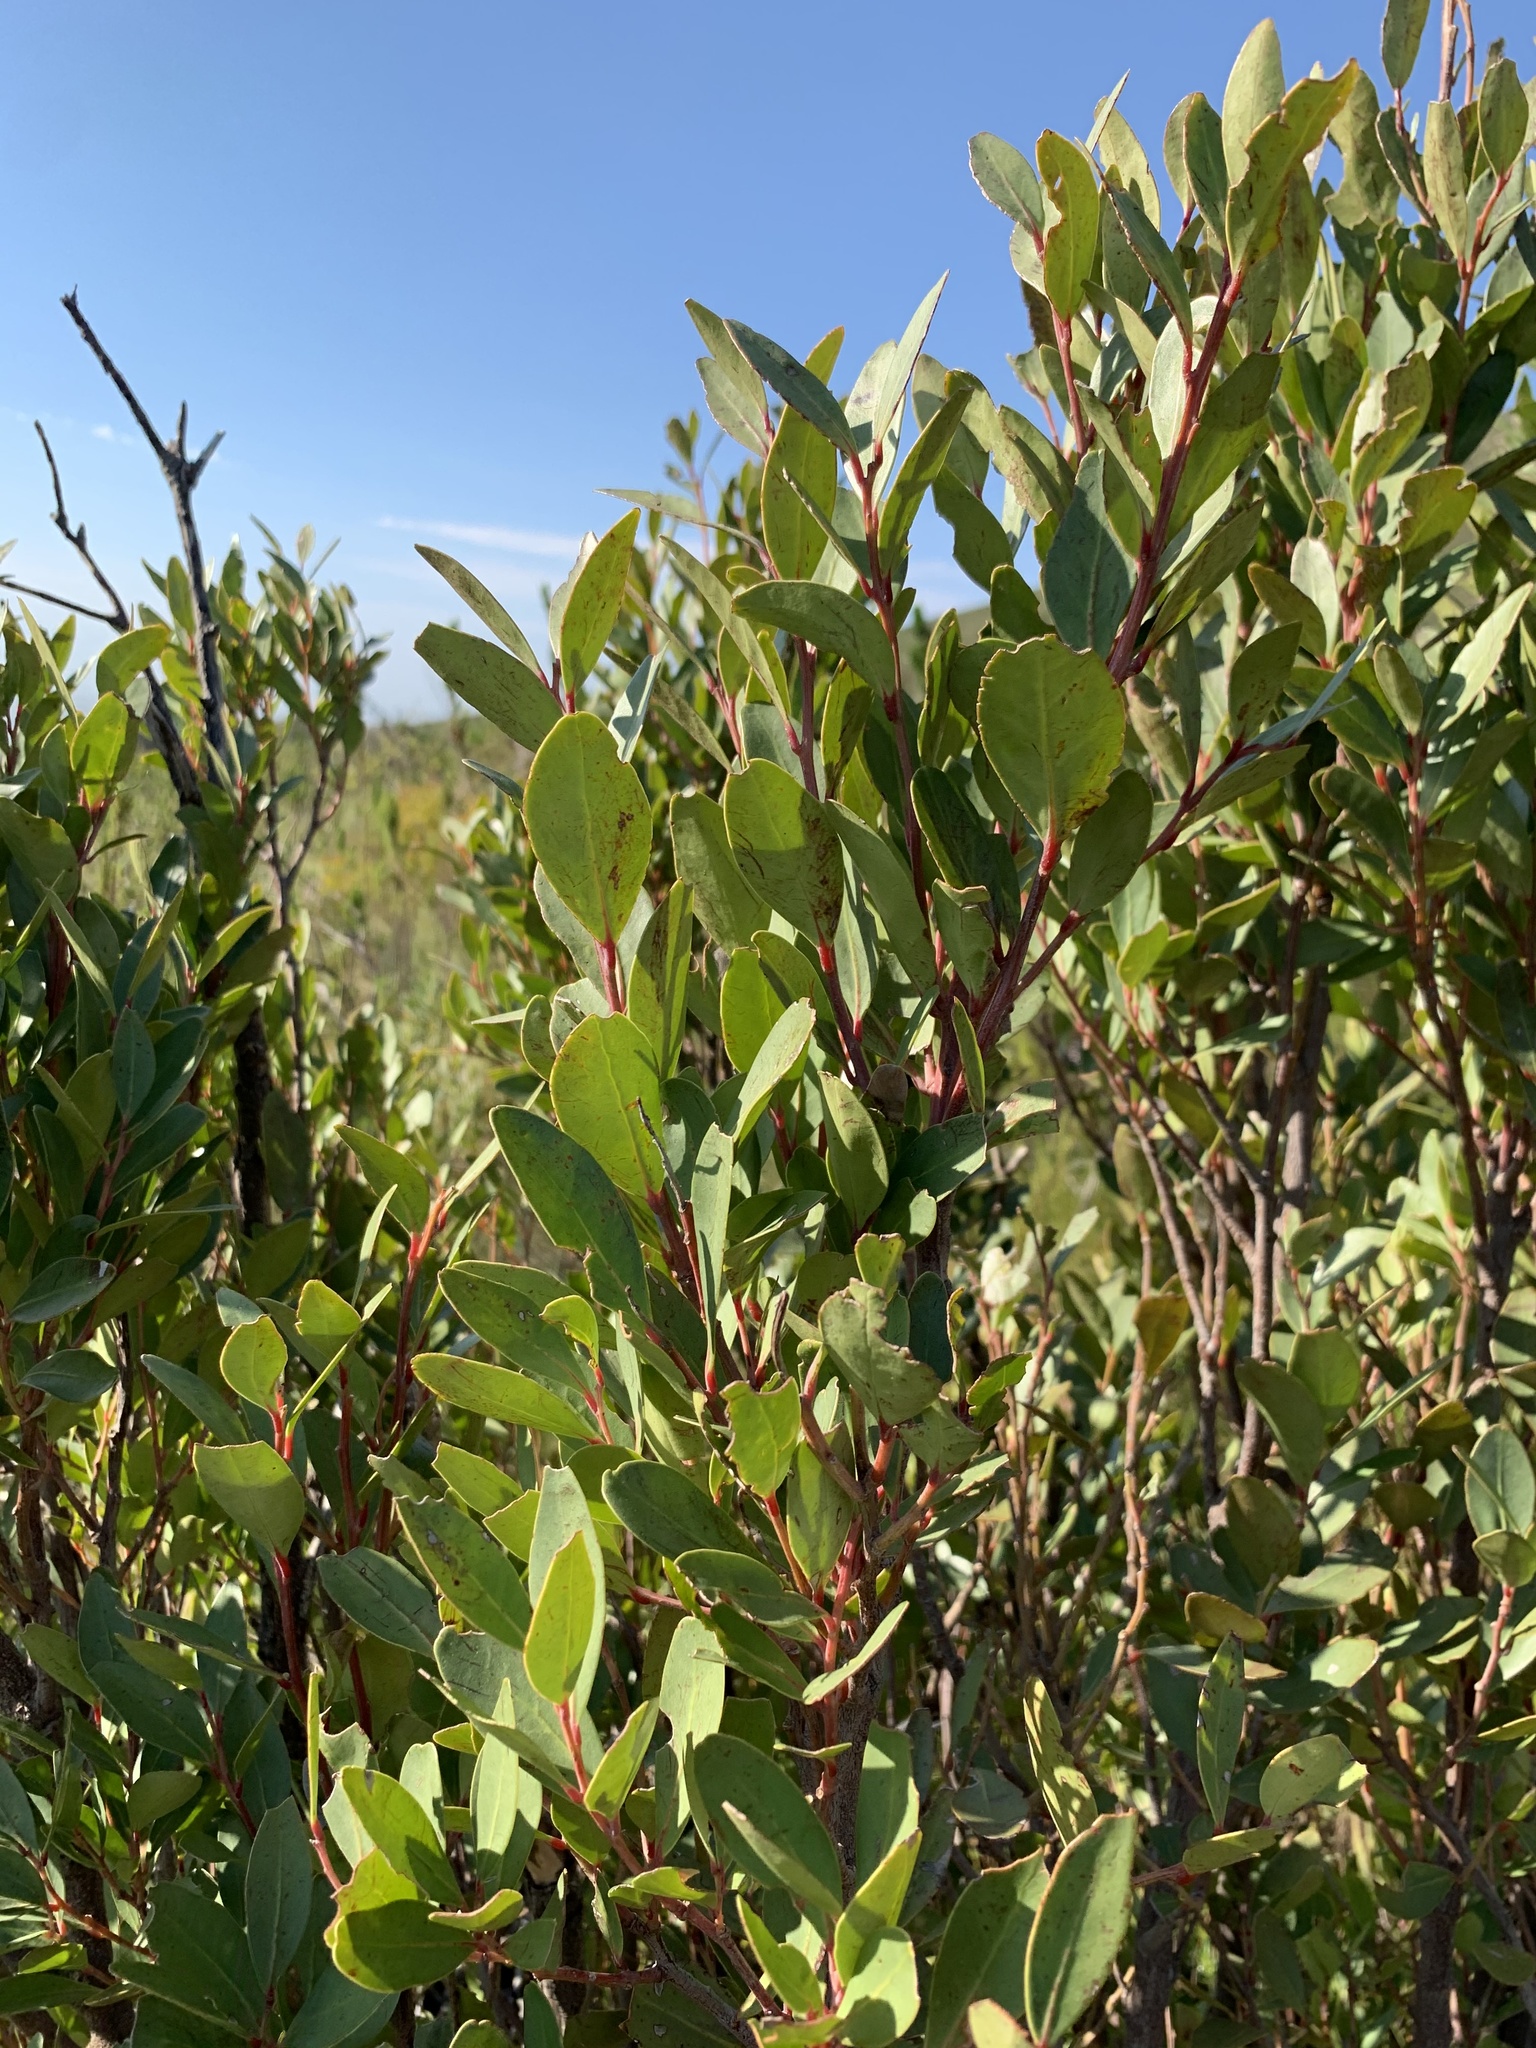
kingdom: Plantae
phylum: Tracheophyta
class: Magnoliopsida
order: Celastrales
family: Celastraceae
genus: Gymnosporia
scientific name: Gymnosporia laurina
